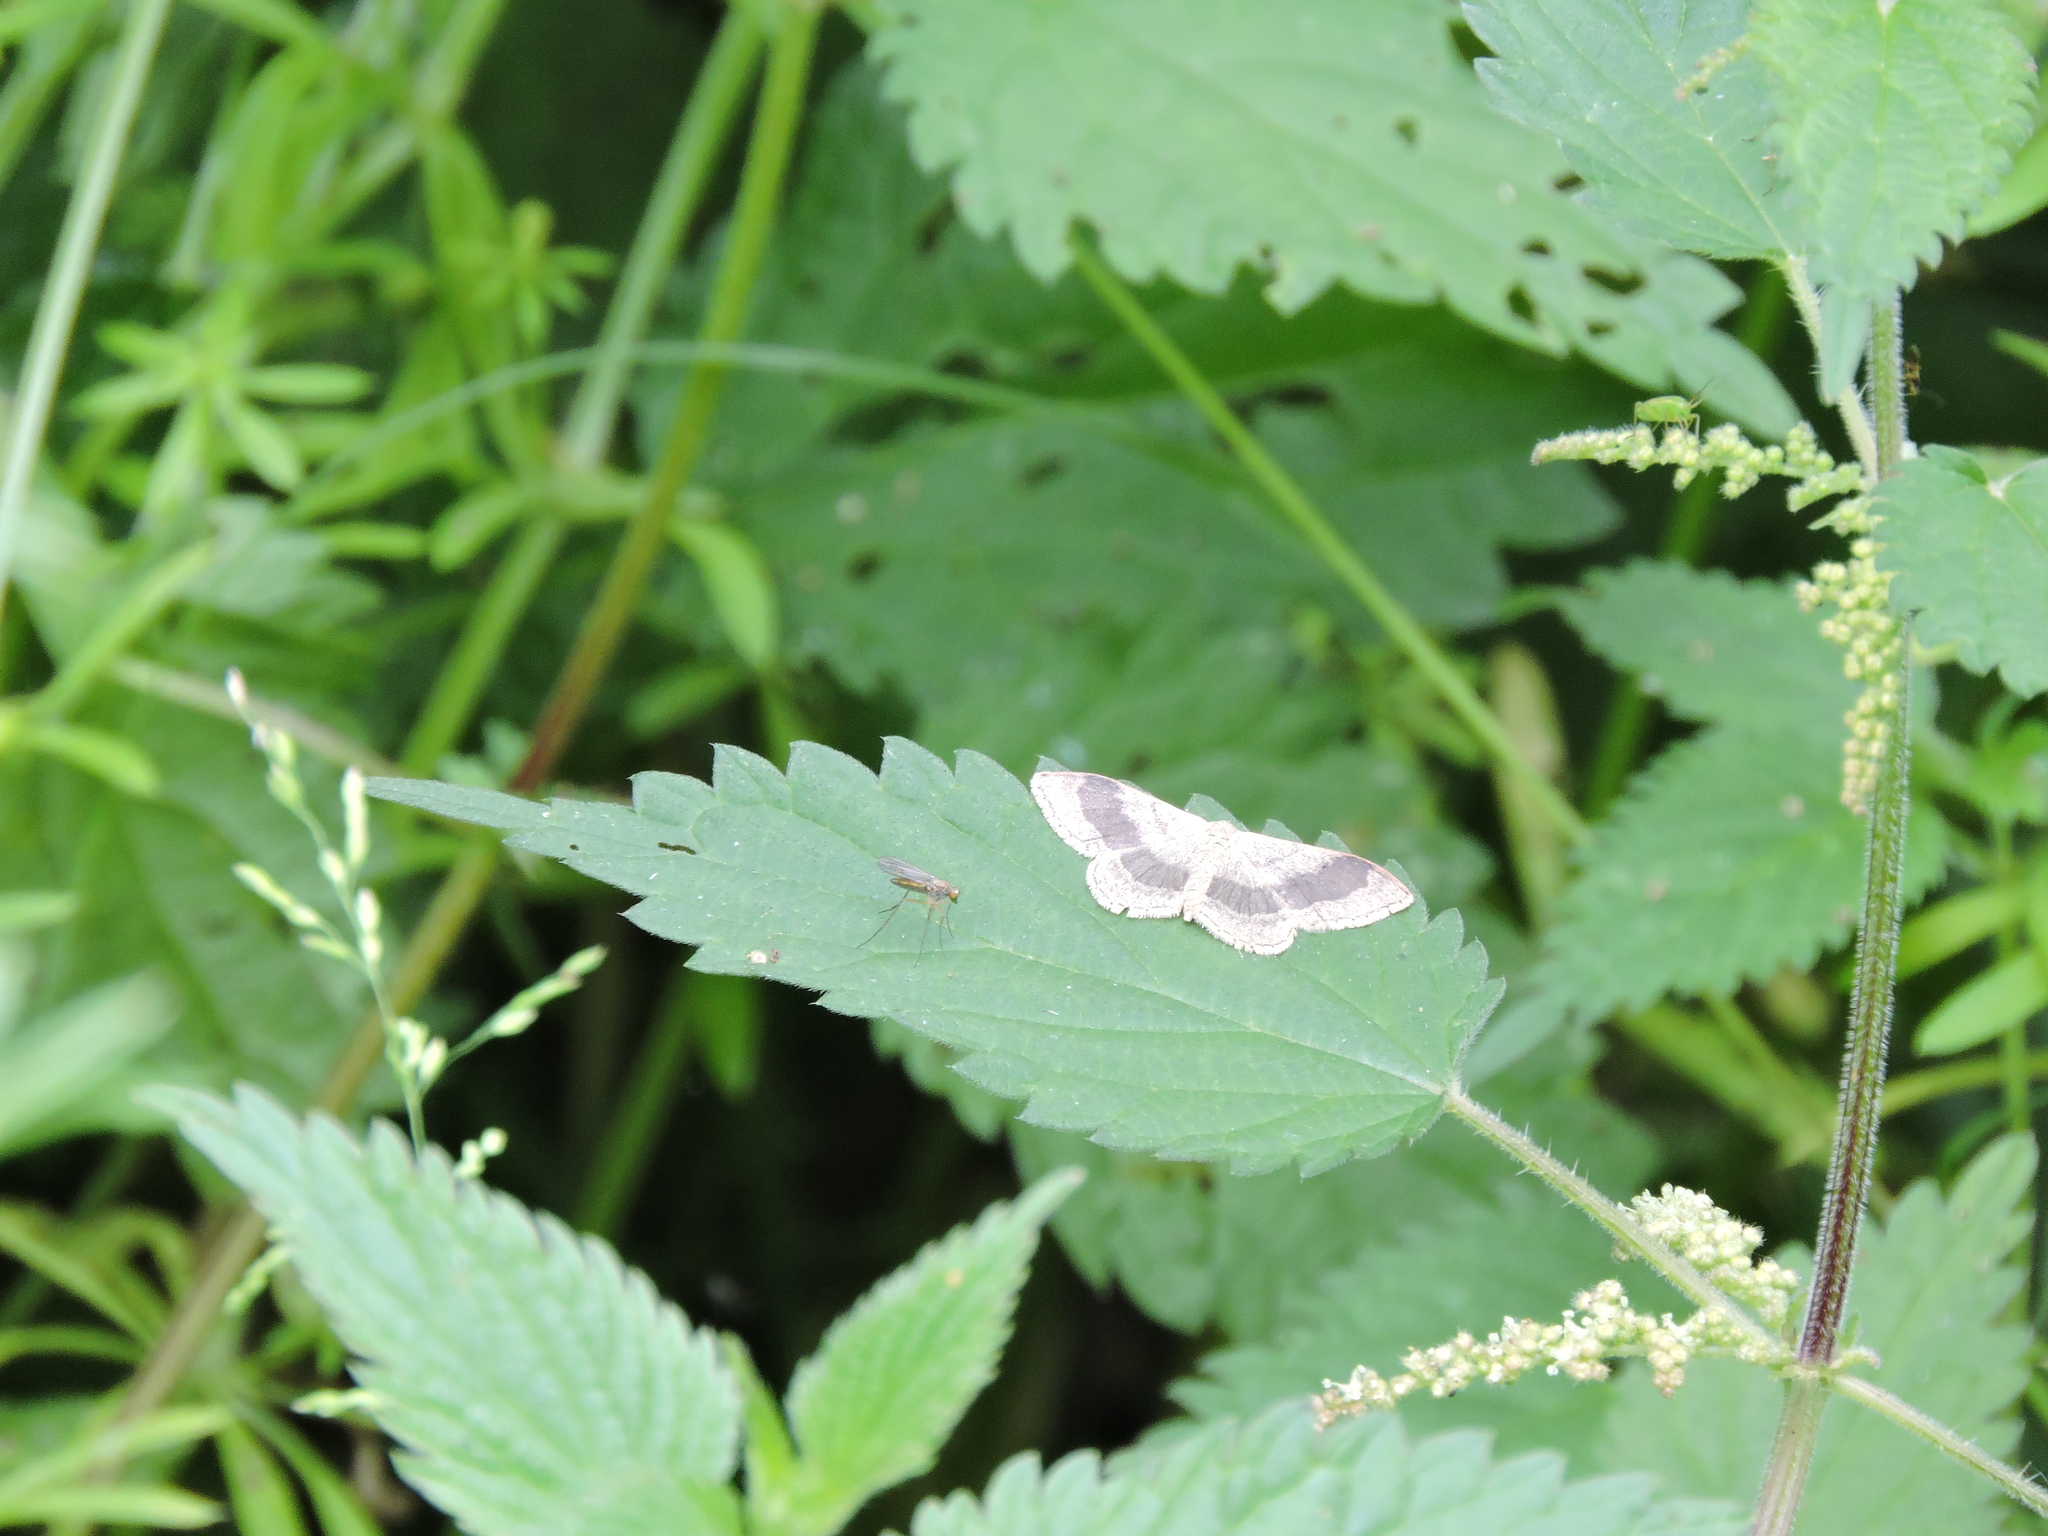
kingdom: Animalia
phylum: Arthropoda
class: Insecta
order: Lepidoptera
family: Geometridae
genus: Idaea
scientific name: Idaea aversata
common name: Riband wave
